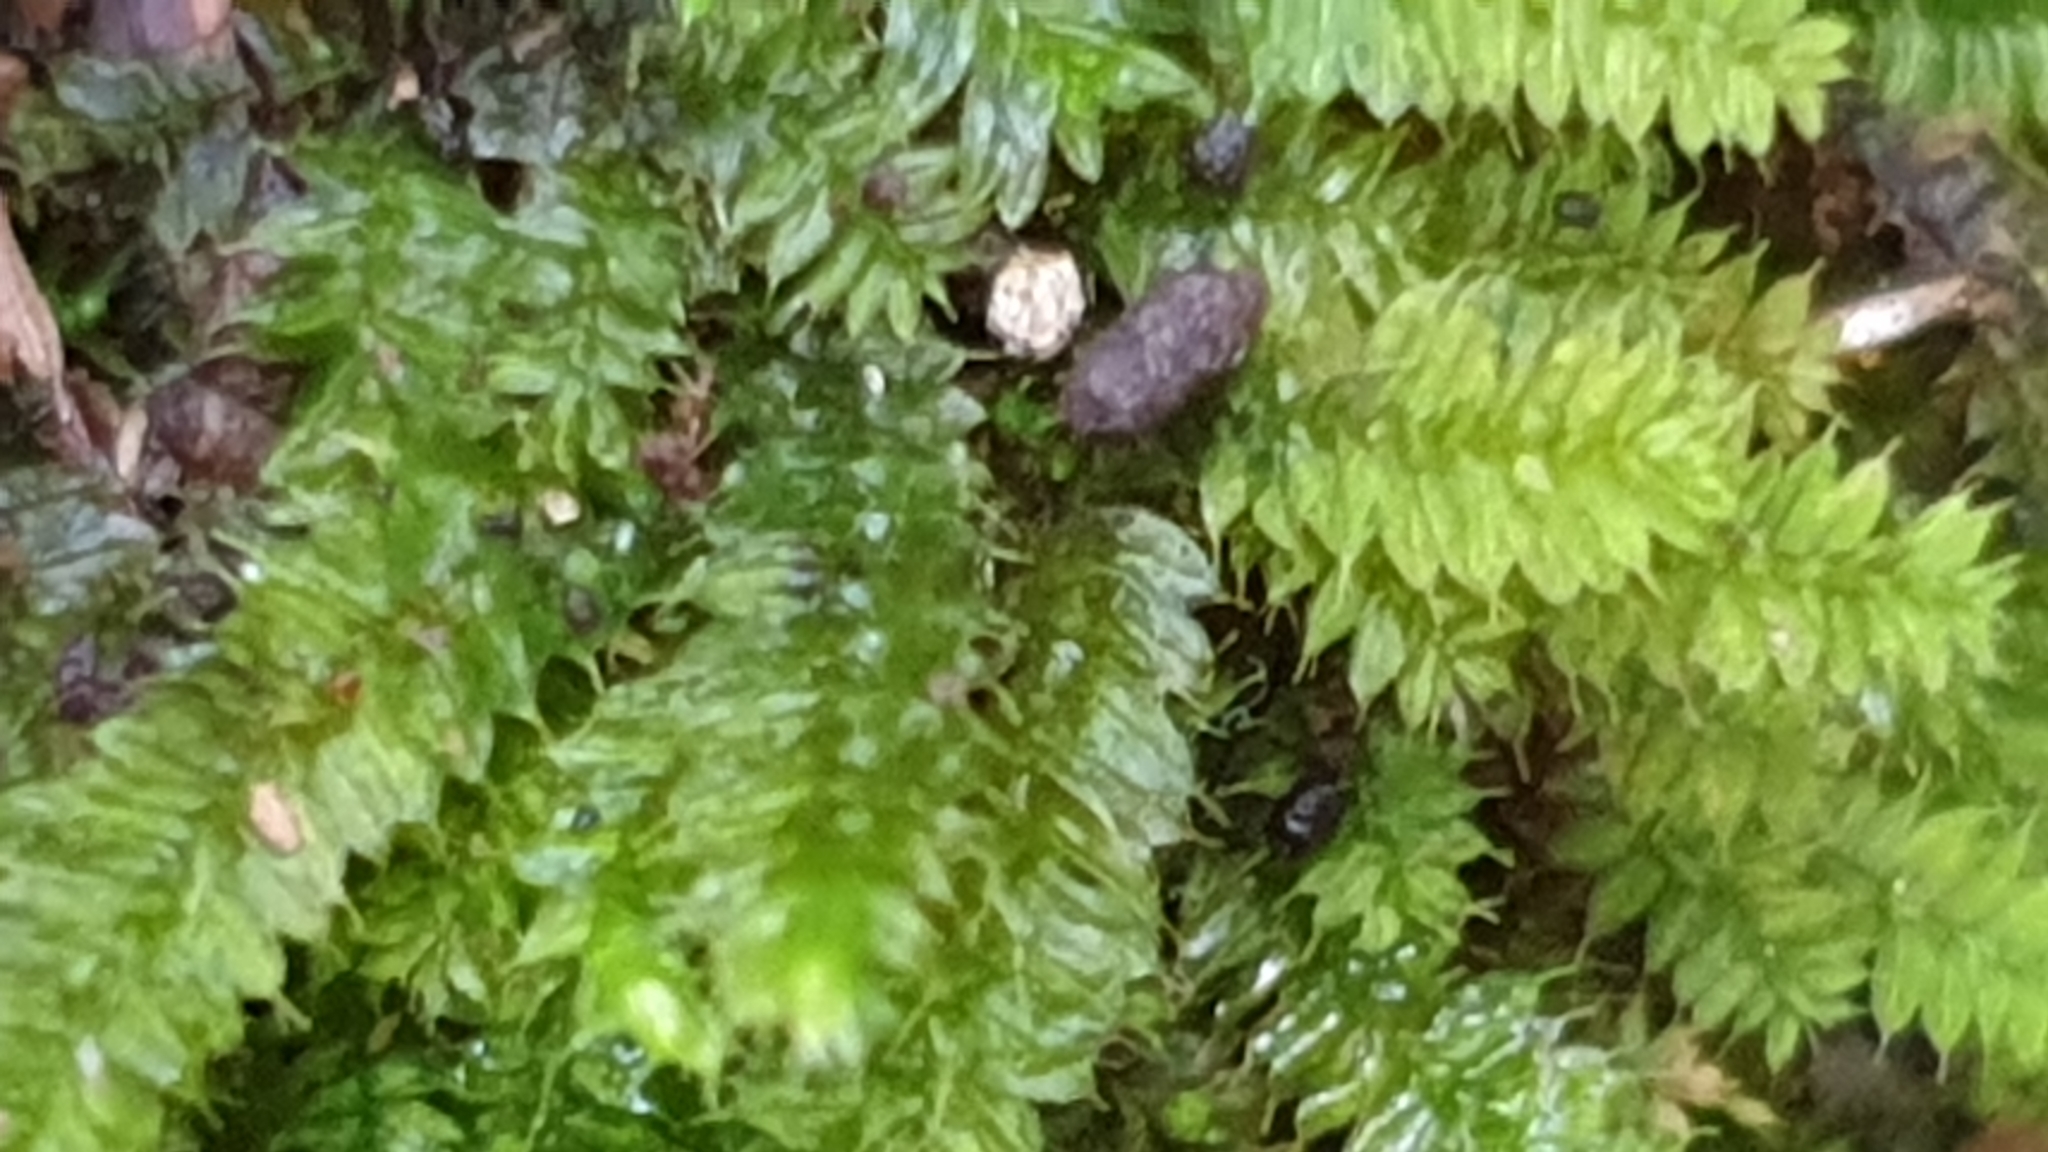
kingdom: Plantae
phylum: Bryophyta
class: Bryopsida
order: Hypnodendrales
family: Racopilaceae
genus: Racopilum
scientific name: Racopilum cuspidigerum
